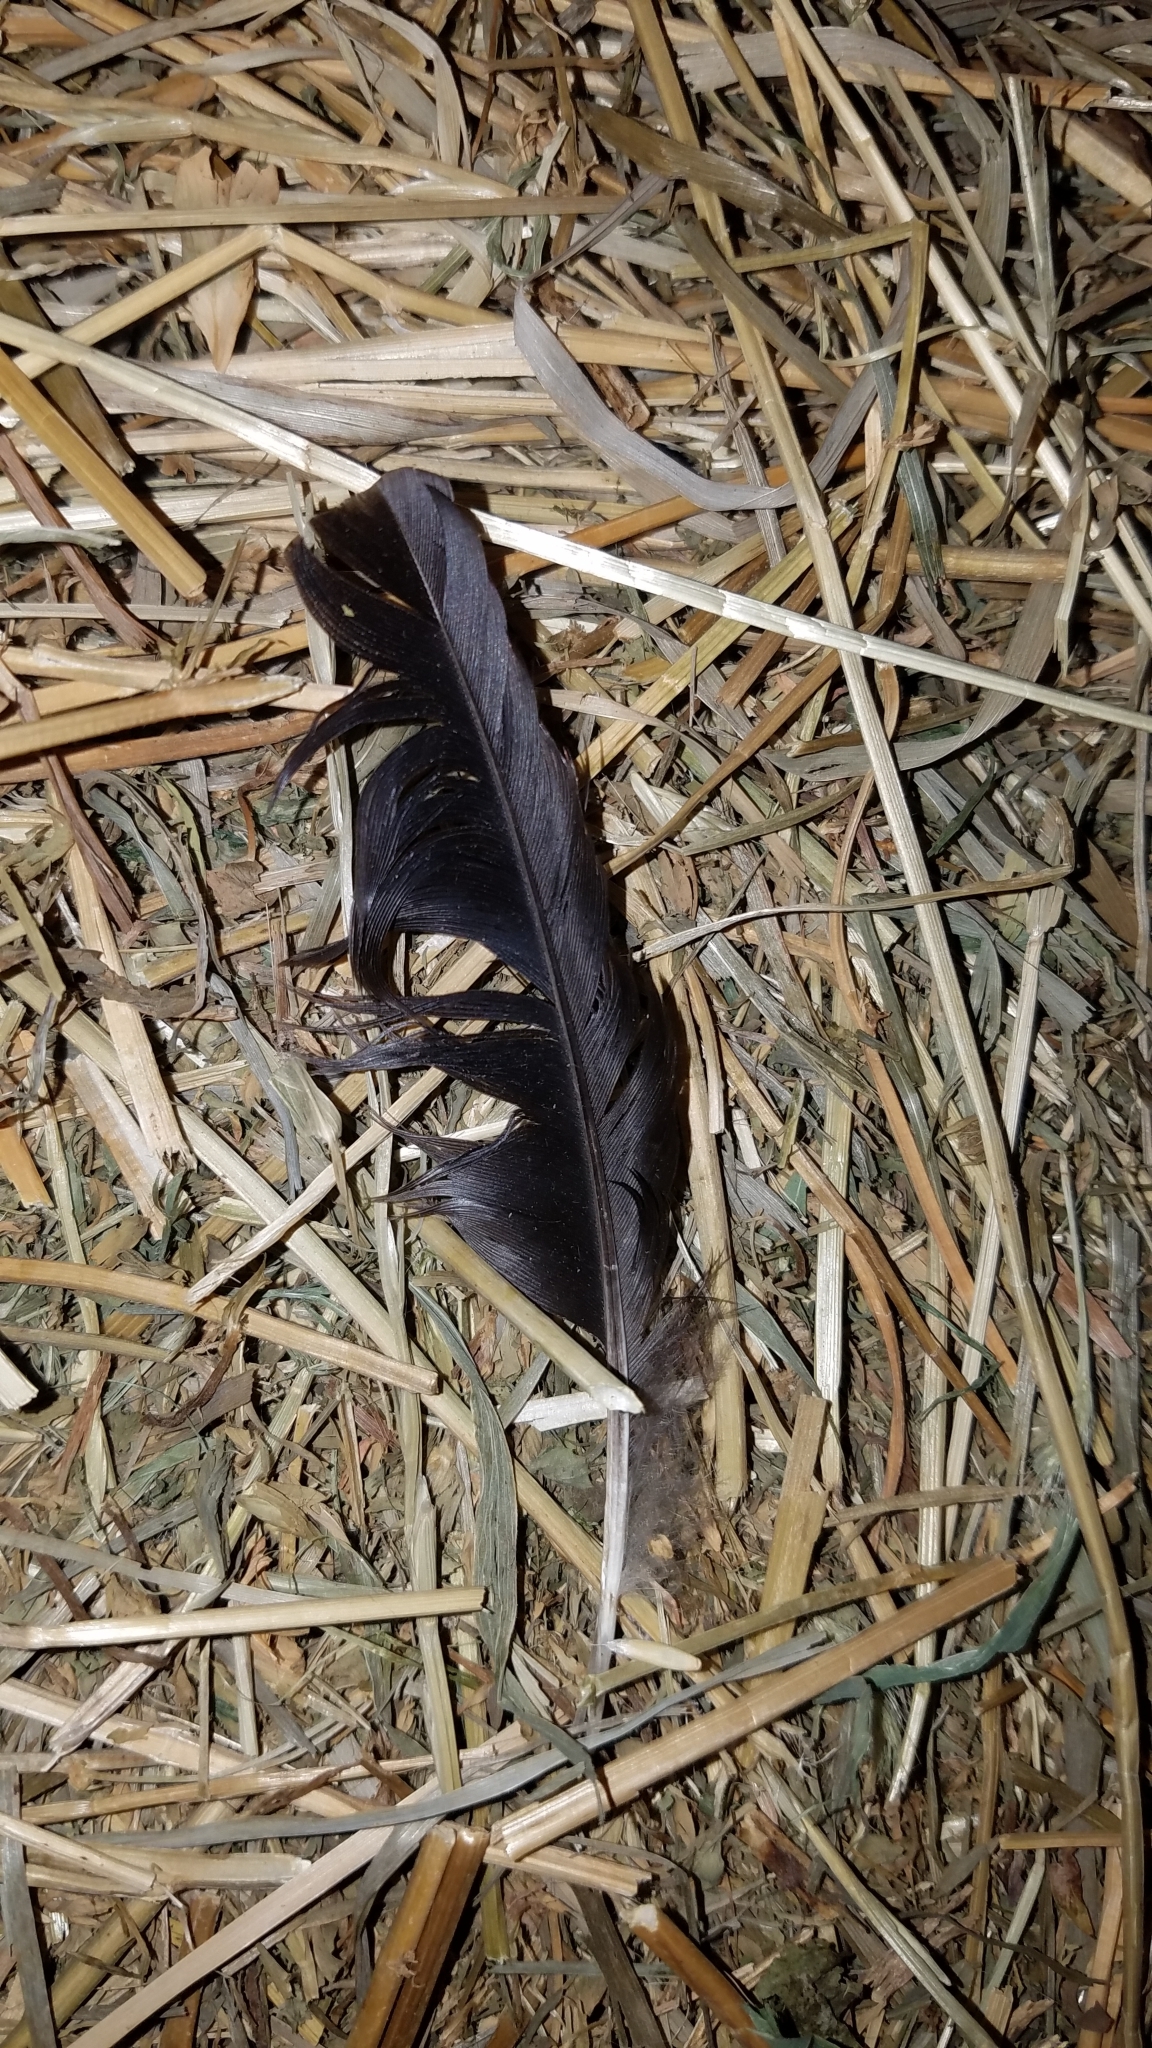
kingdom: Animalia
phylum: Chordata
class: Aves
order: Passeriformes
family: Corvidae
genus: Corvus
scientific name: Corvus brachyrhynchos
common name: American crow
